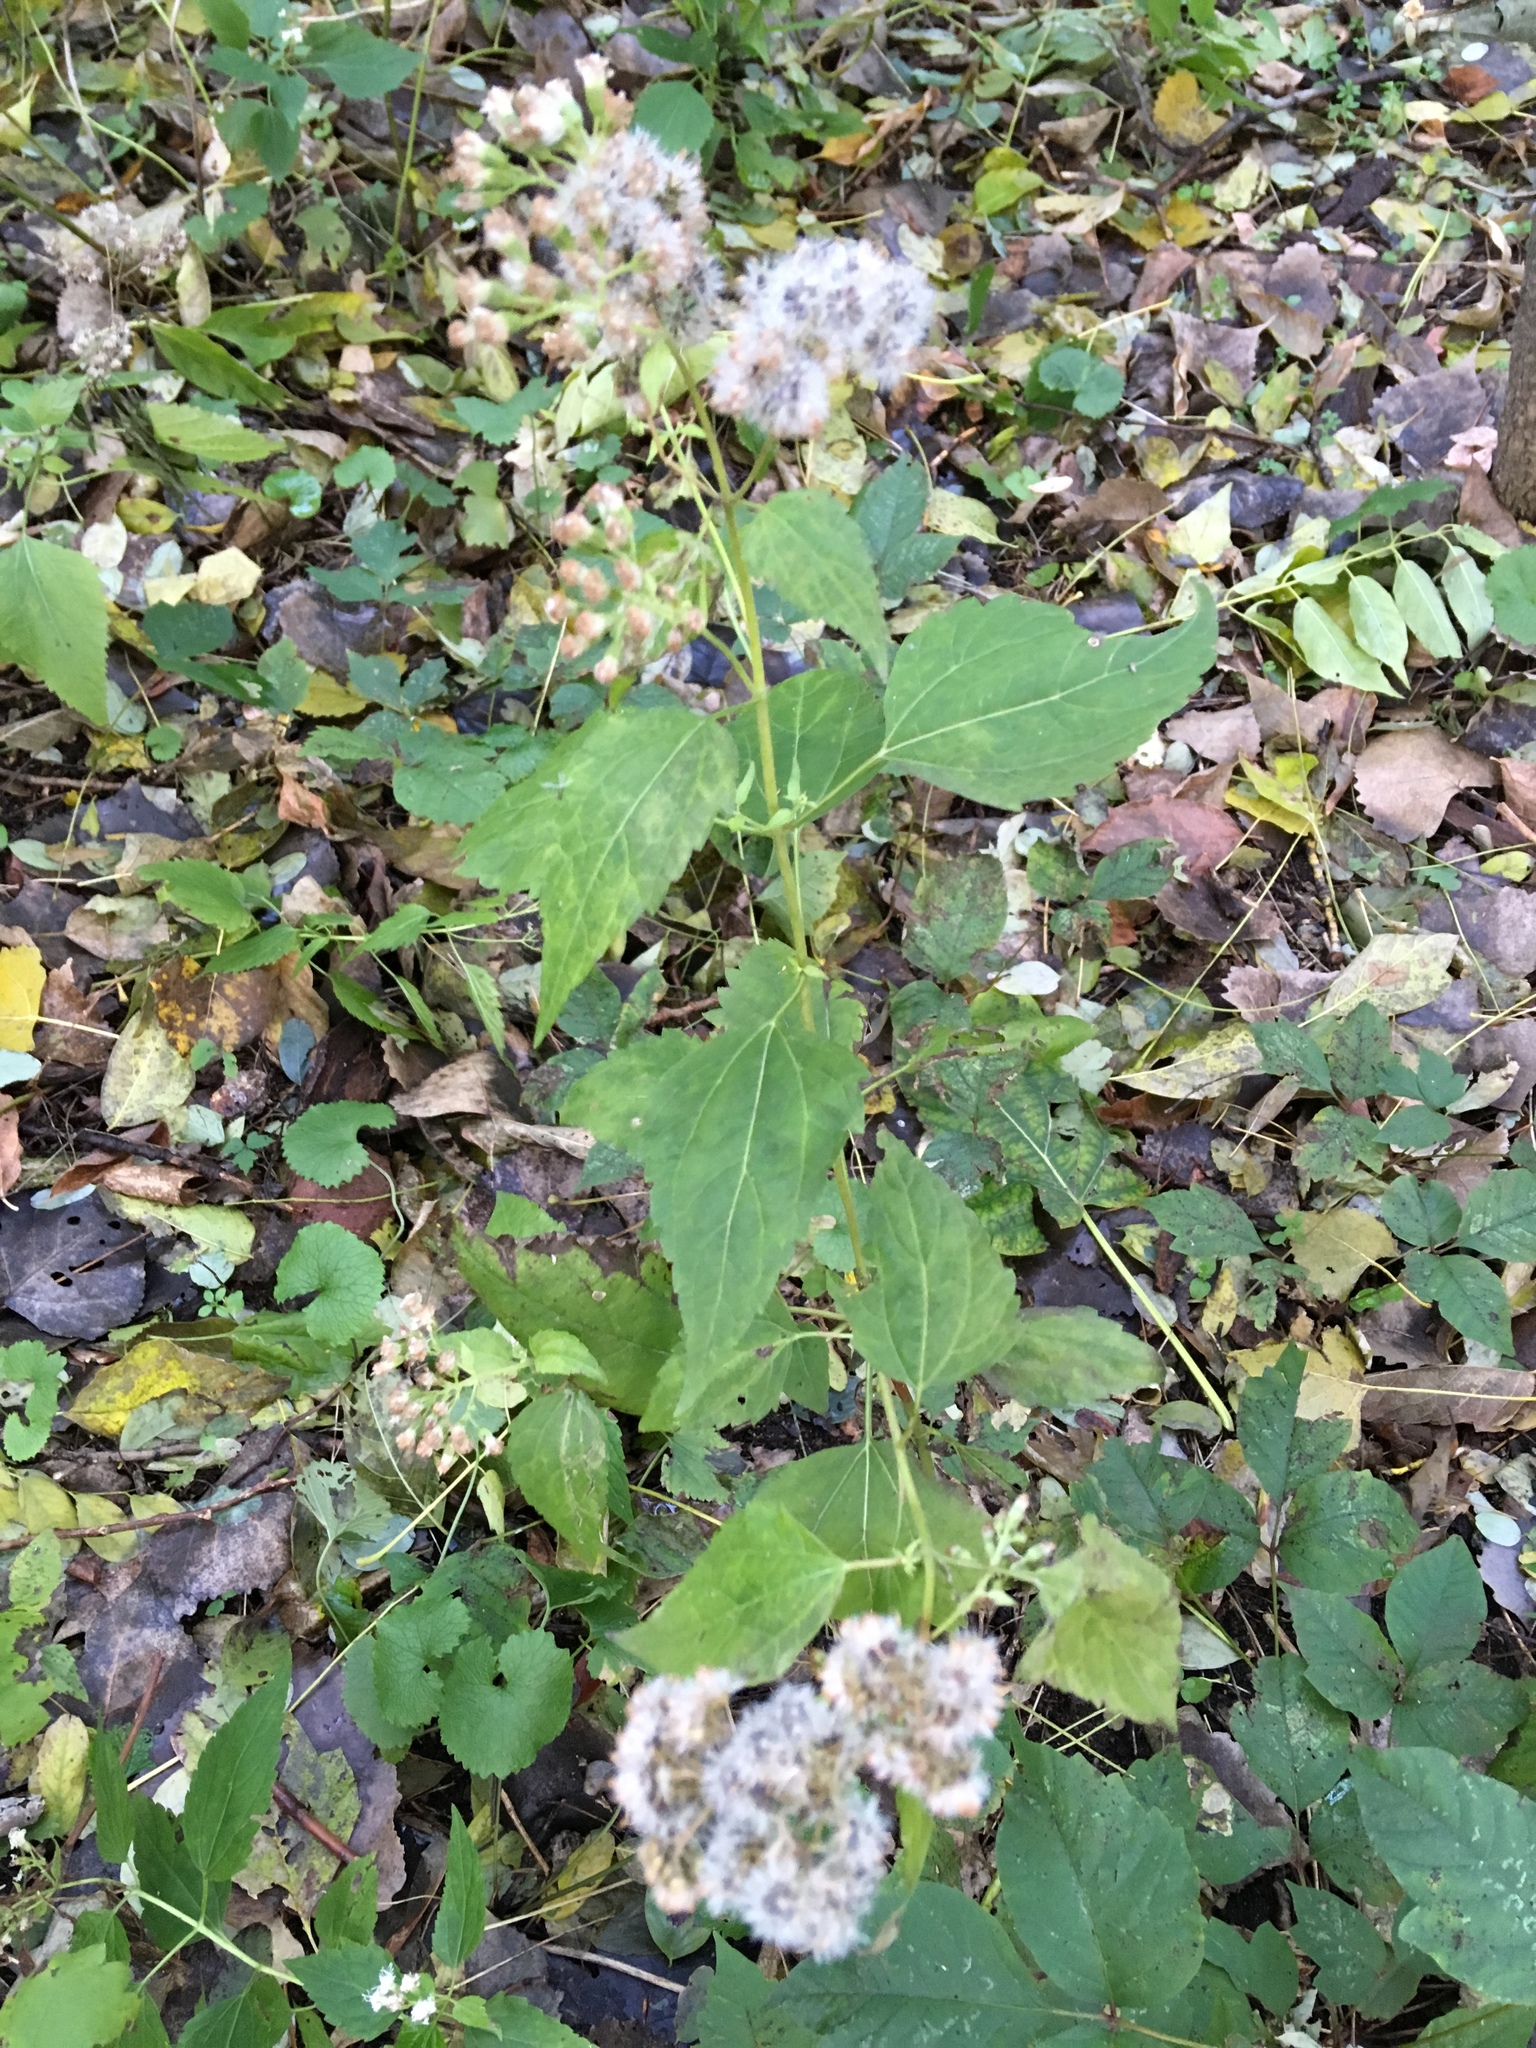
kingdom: Plantae
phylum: Tracheophyta
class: Magnoliopsida
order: Asterales
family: Asteraceae
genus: Ageratina
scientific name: Ageratina altissima
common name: White snakeroot
